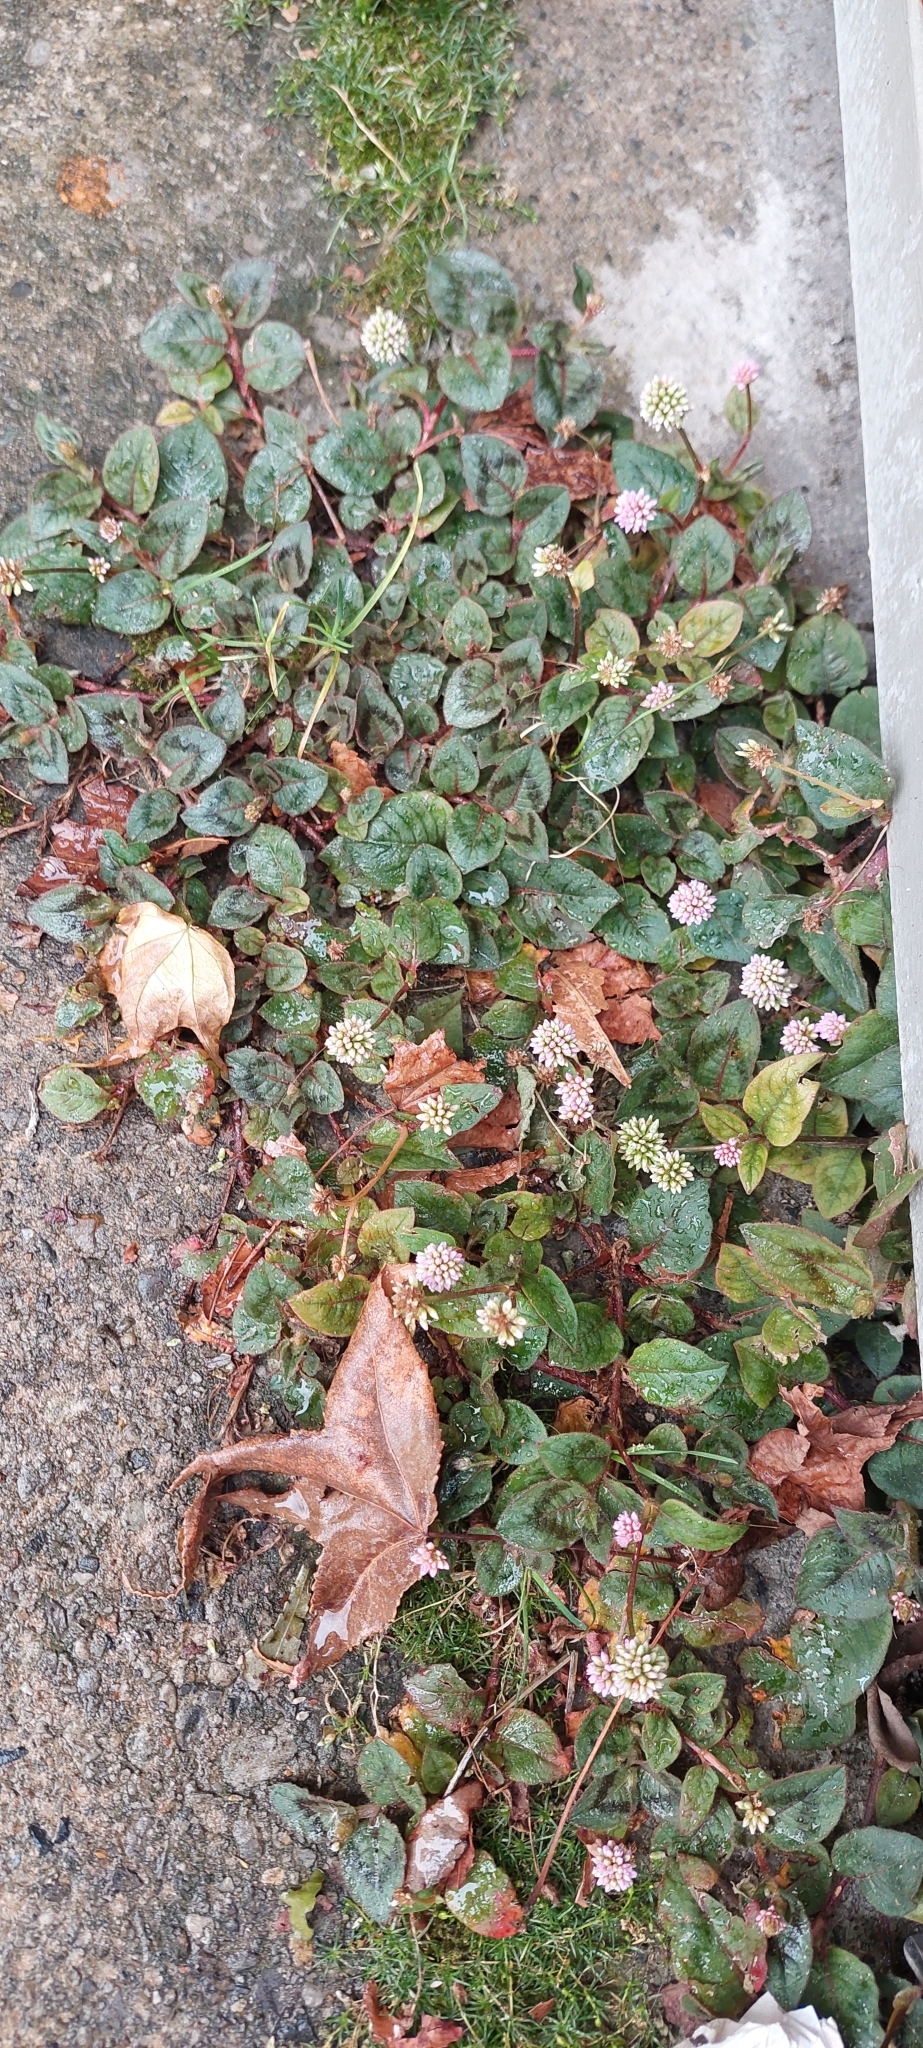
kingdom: Plantae
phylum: Tracheophyta
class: Magnoliopsida
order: Caryophyllales
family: Polygonaceae
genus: Persicaria
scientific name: Persicaria capitata
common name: Pinkhead smartweed
